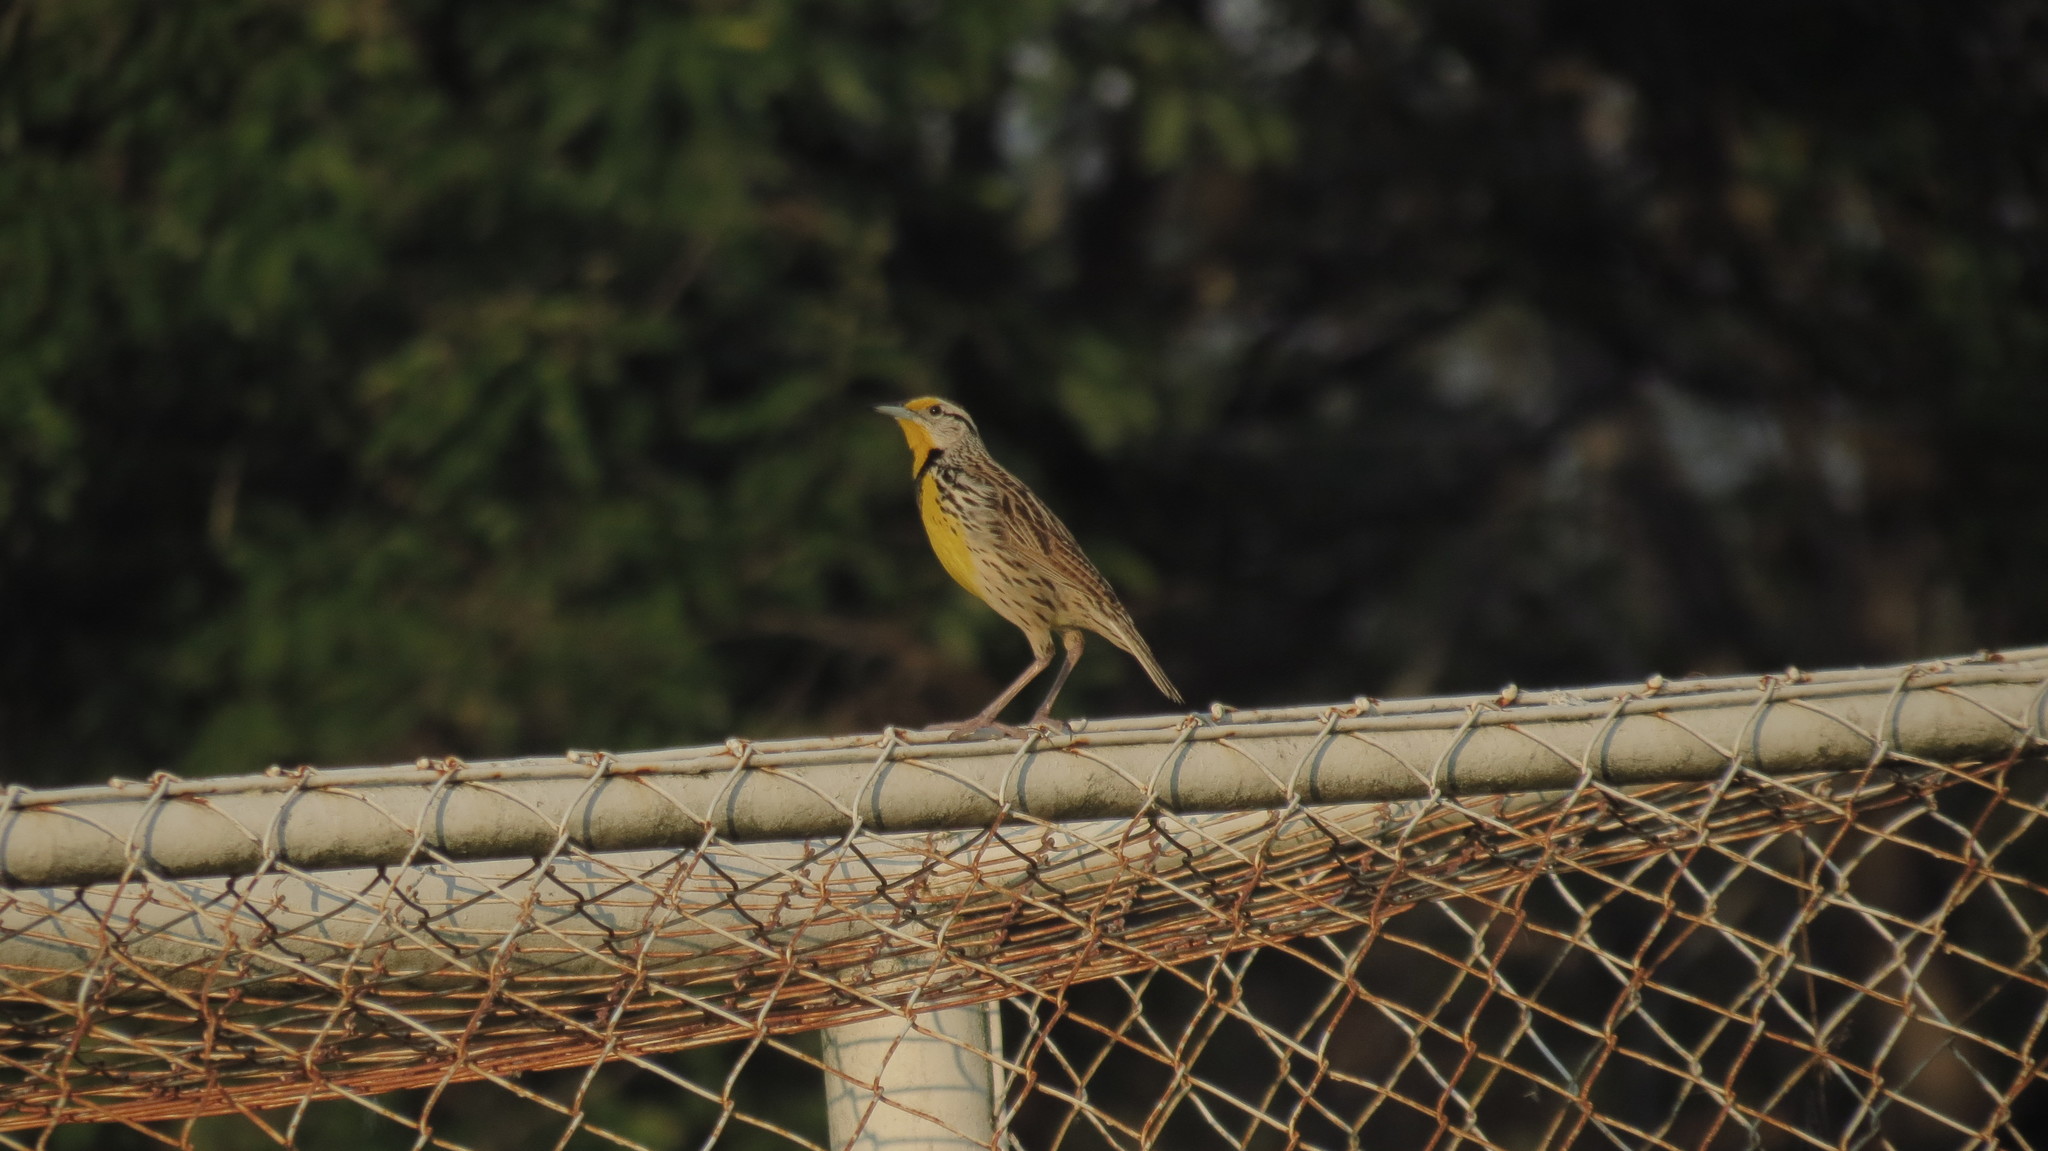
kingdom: Animalia
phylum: Chordata
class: Aves
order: Passeriformes
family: Icteridae
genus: Sturnella
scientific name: Sturnella magna
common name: Eastern meadowlark
